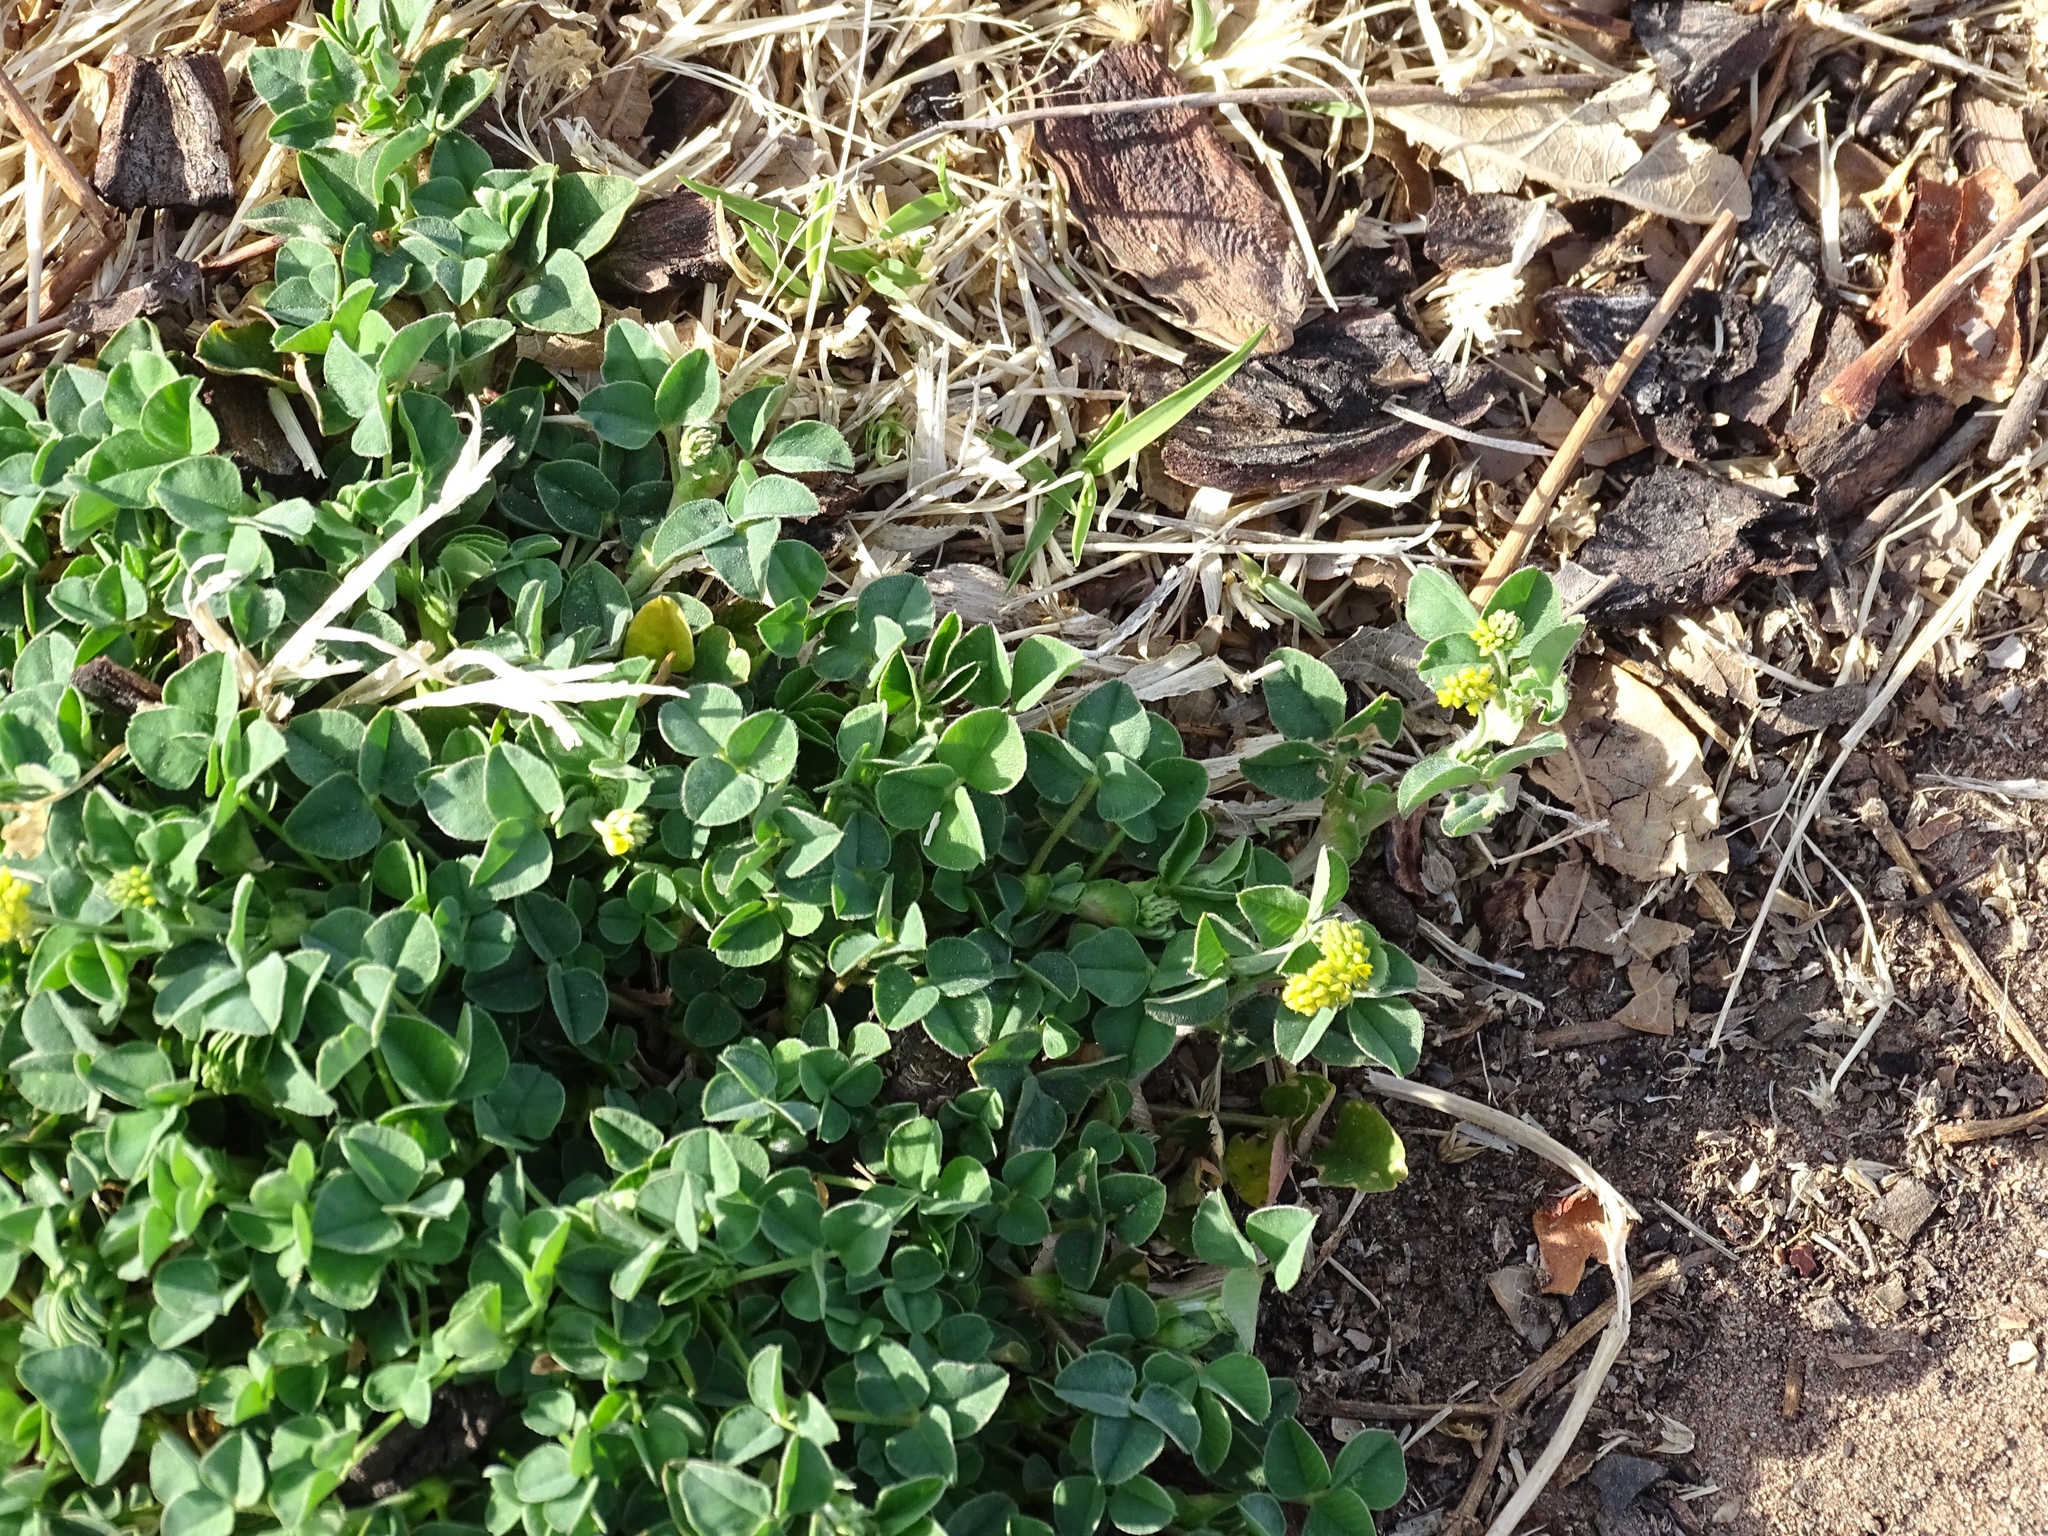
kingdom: Plantae
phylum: Tracheophyta
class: Magnoliopsida
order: Fabales
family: Fabaceae
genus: Medicago
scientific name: Medicago lupulina
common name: Black medick
